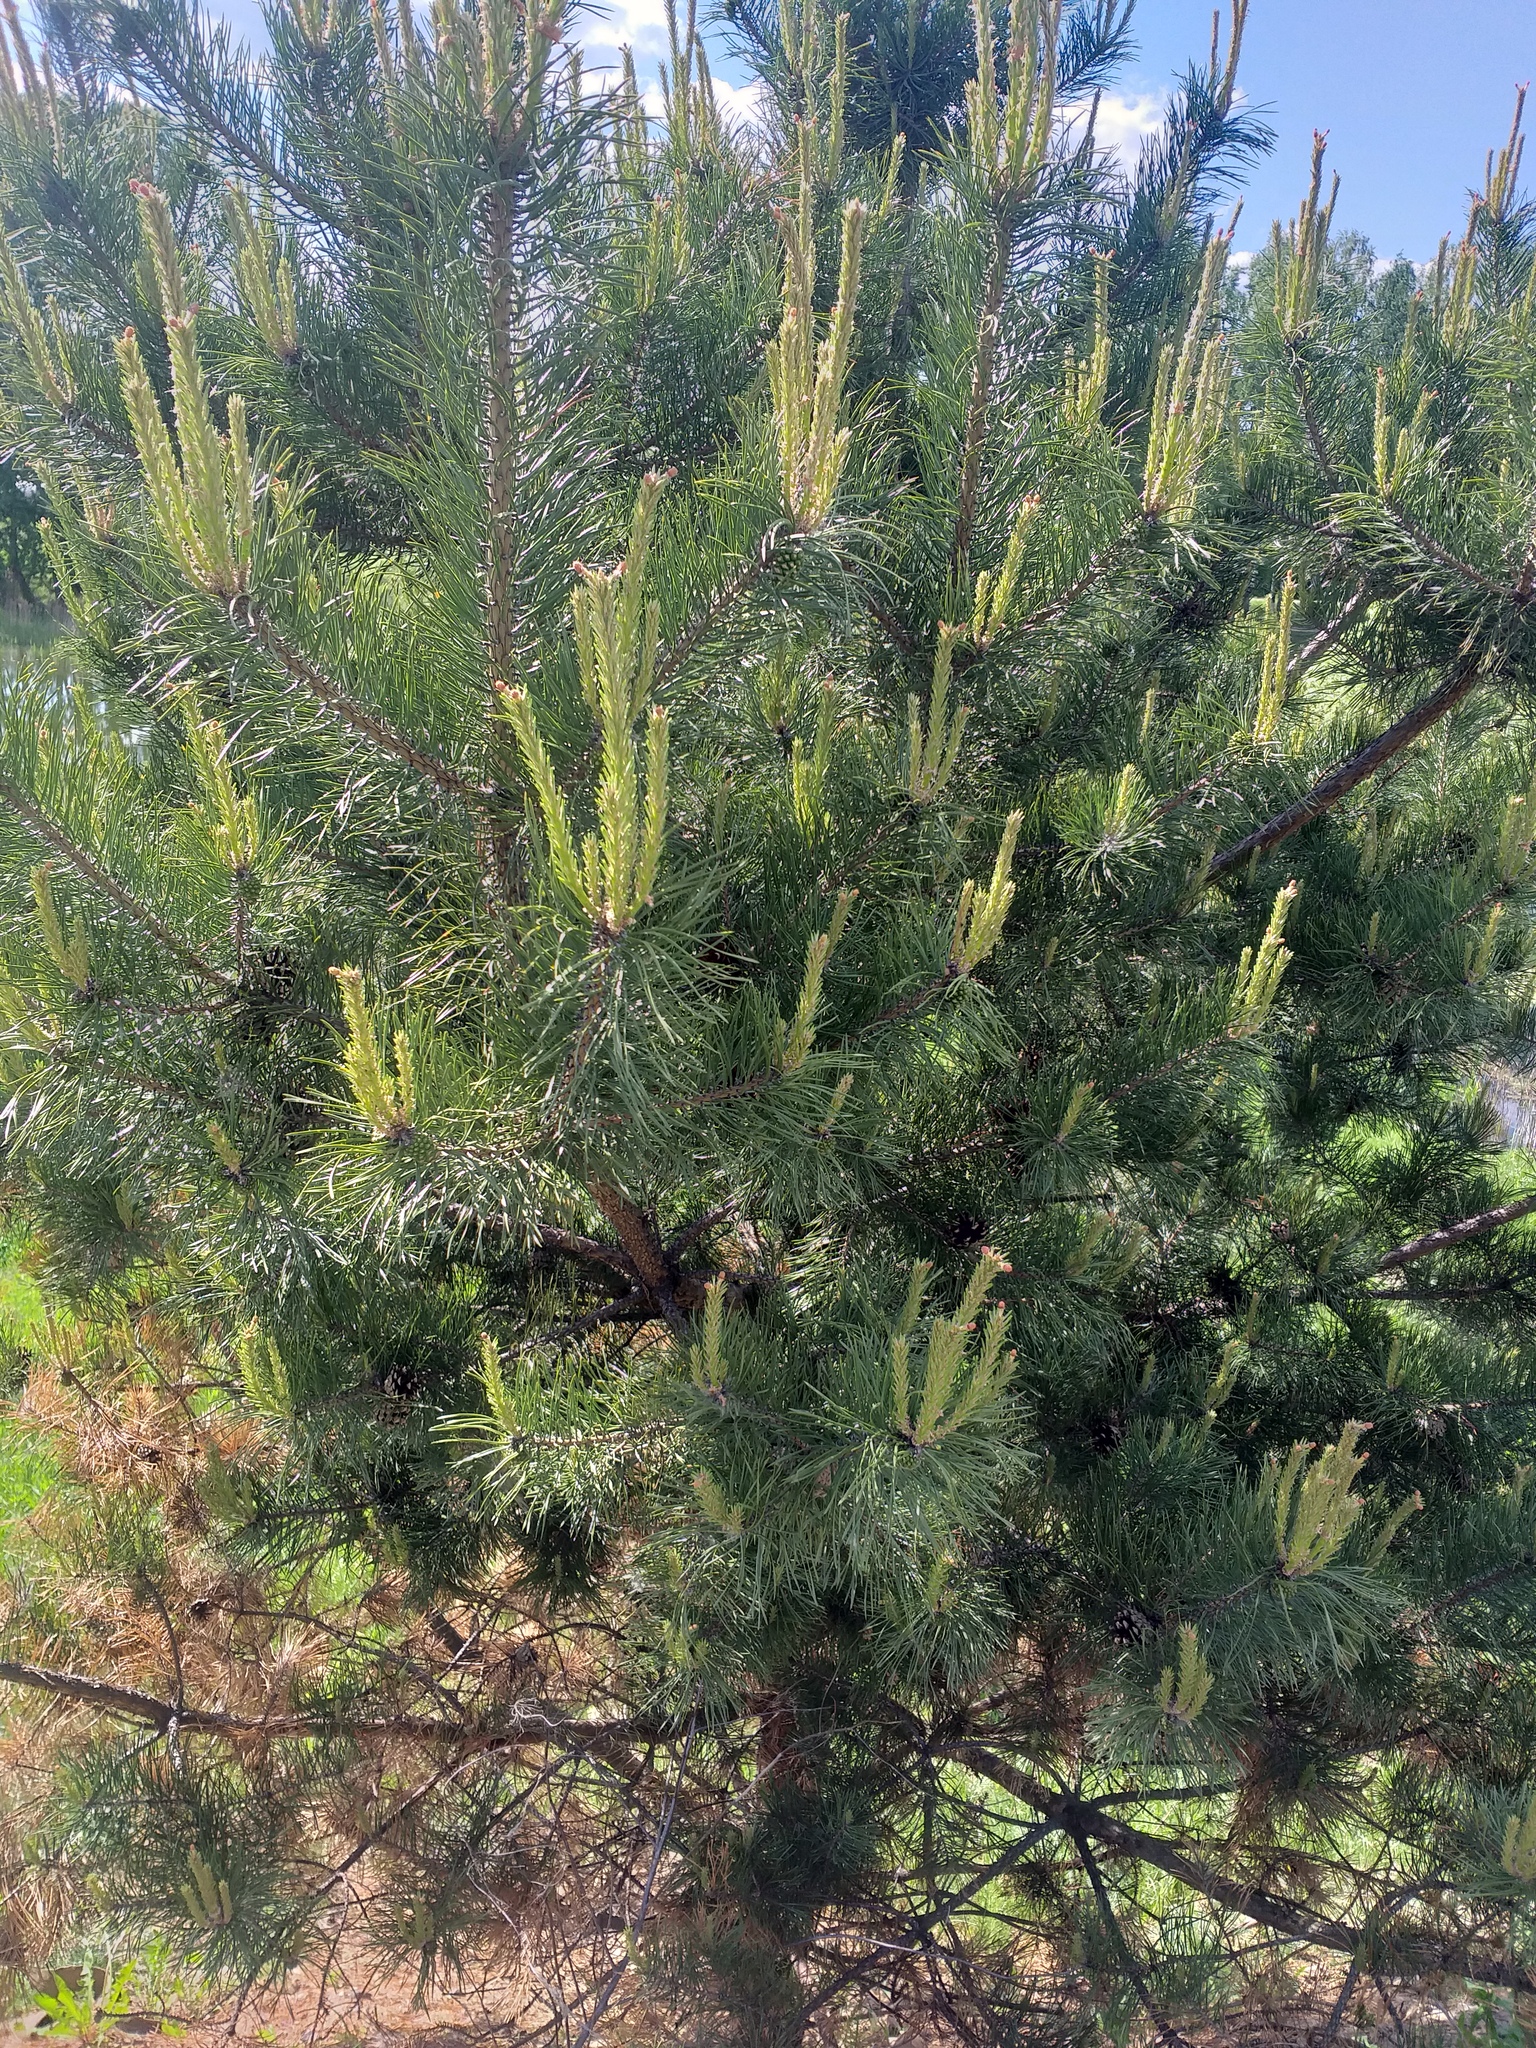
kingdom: Plantae
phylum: Tracheophyta
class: Pinopsida
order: Pinales
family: Pinaceae
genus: Pinus
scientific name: Pinus sylvestris
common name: Scots pine
